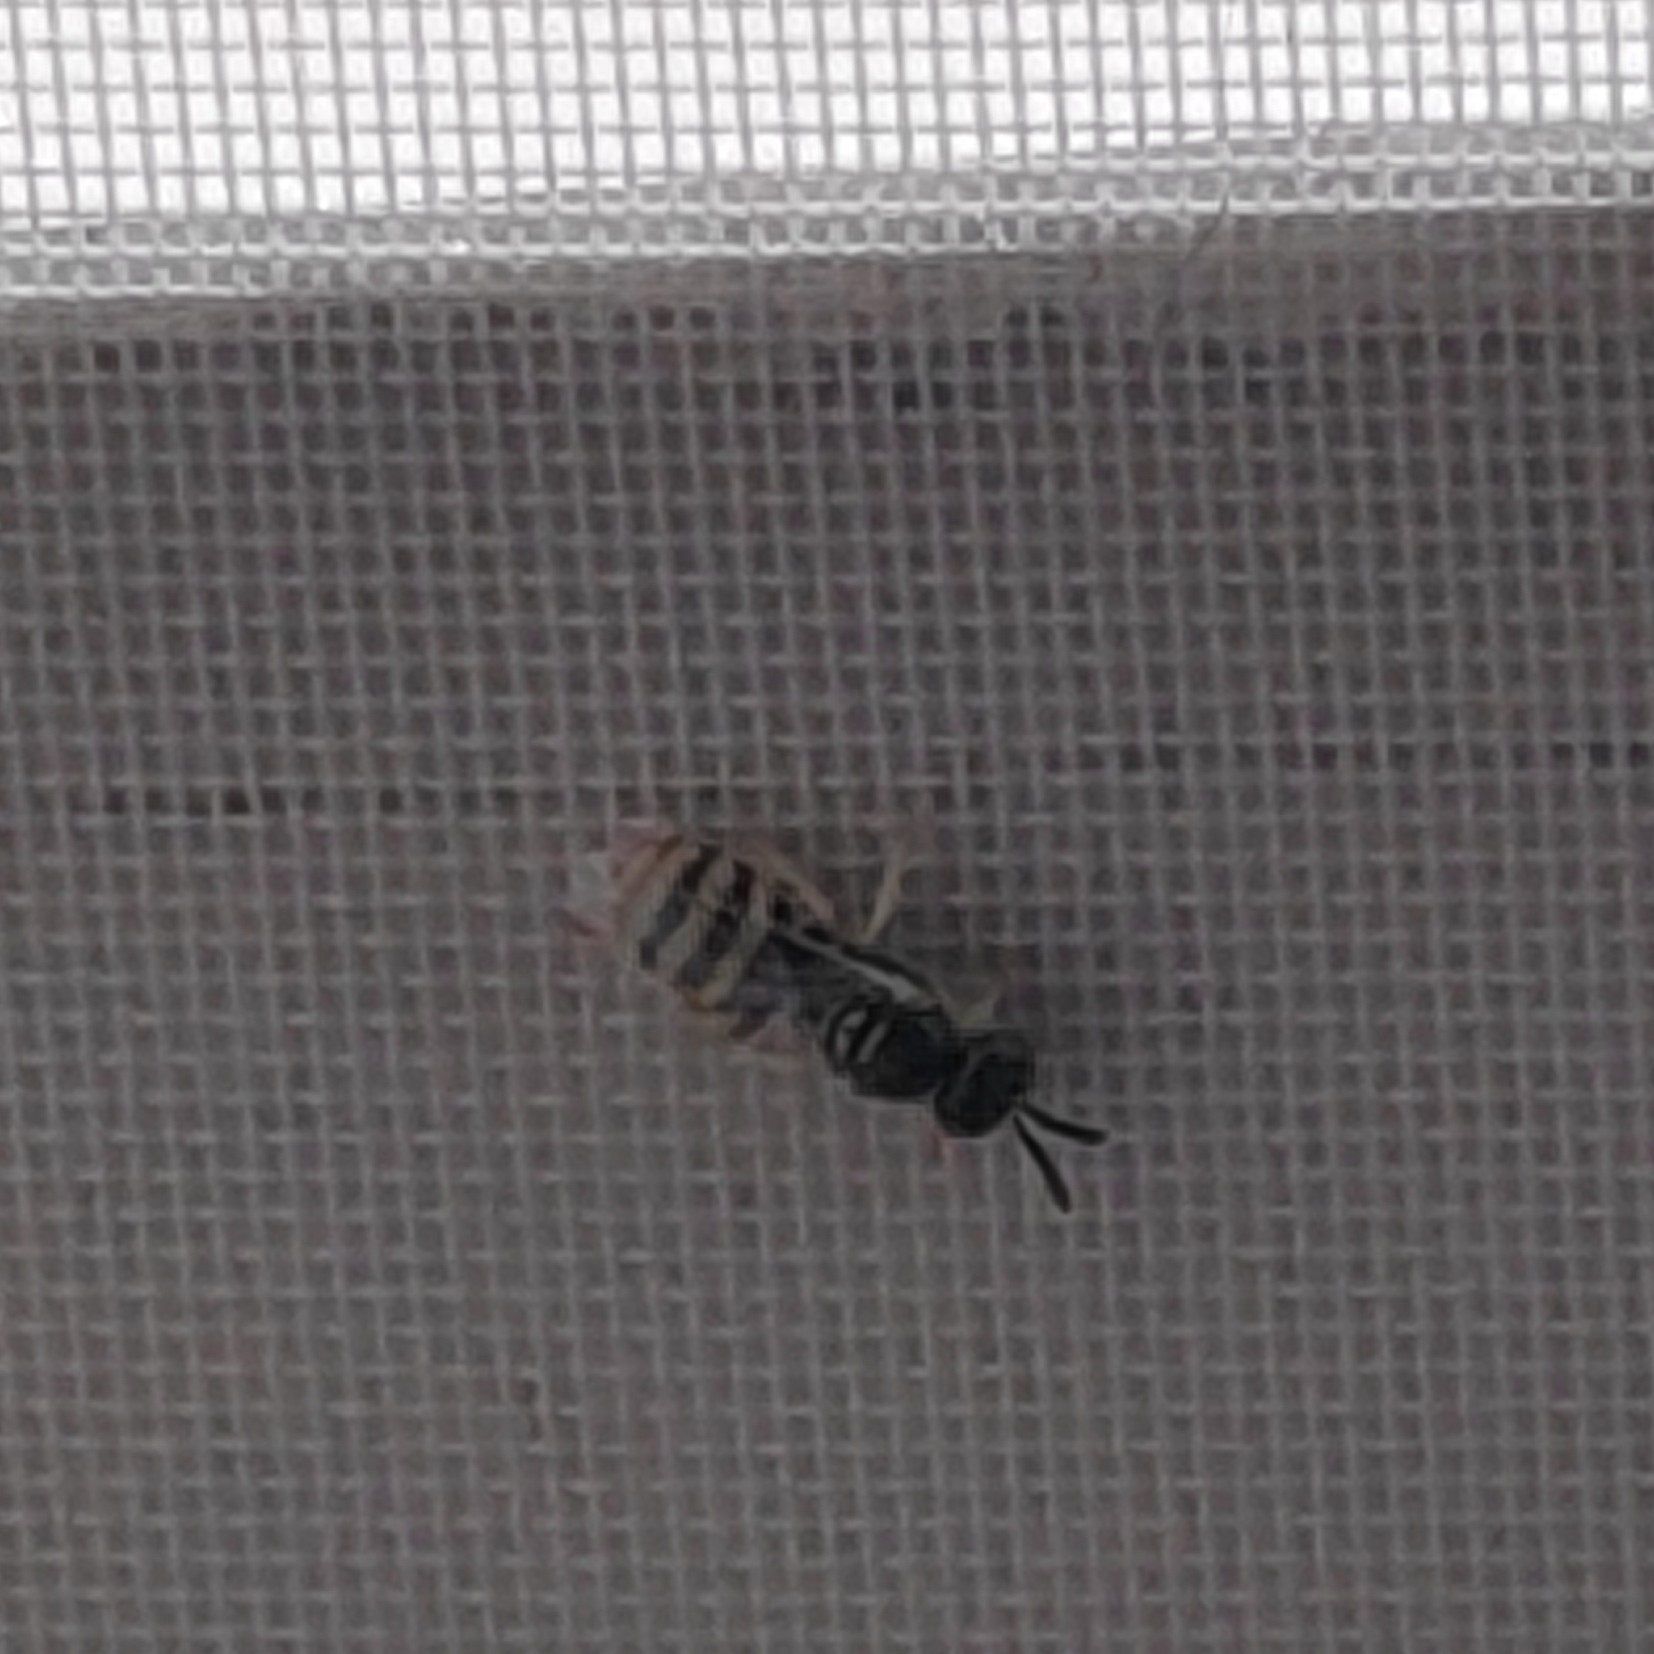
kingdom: Animalia
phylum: Arthropoda
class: Insecta
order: Hymenoptera
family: Halictidae
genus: Ceylalictus
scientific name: Ceylalictus variegatus
